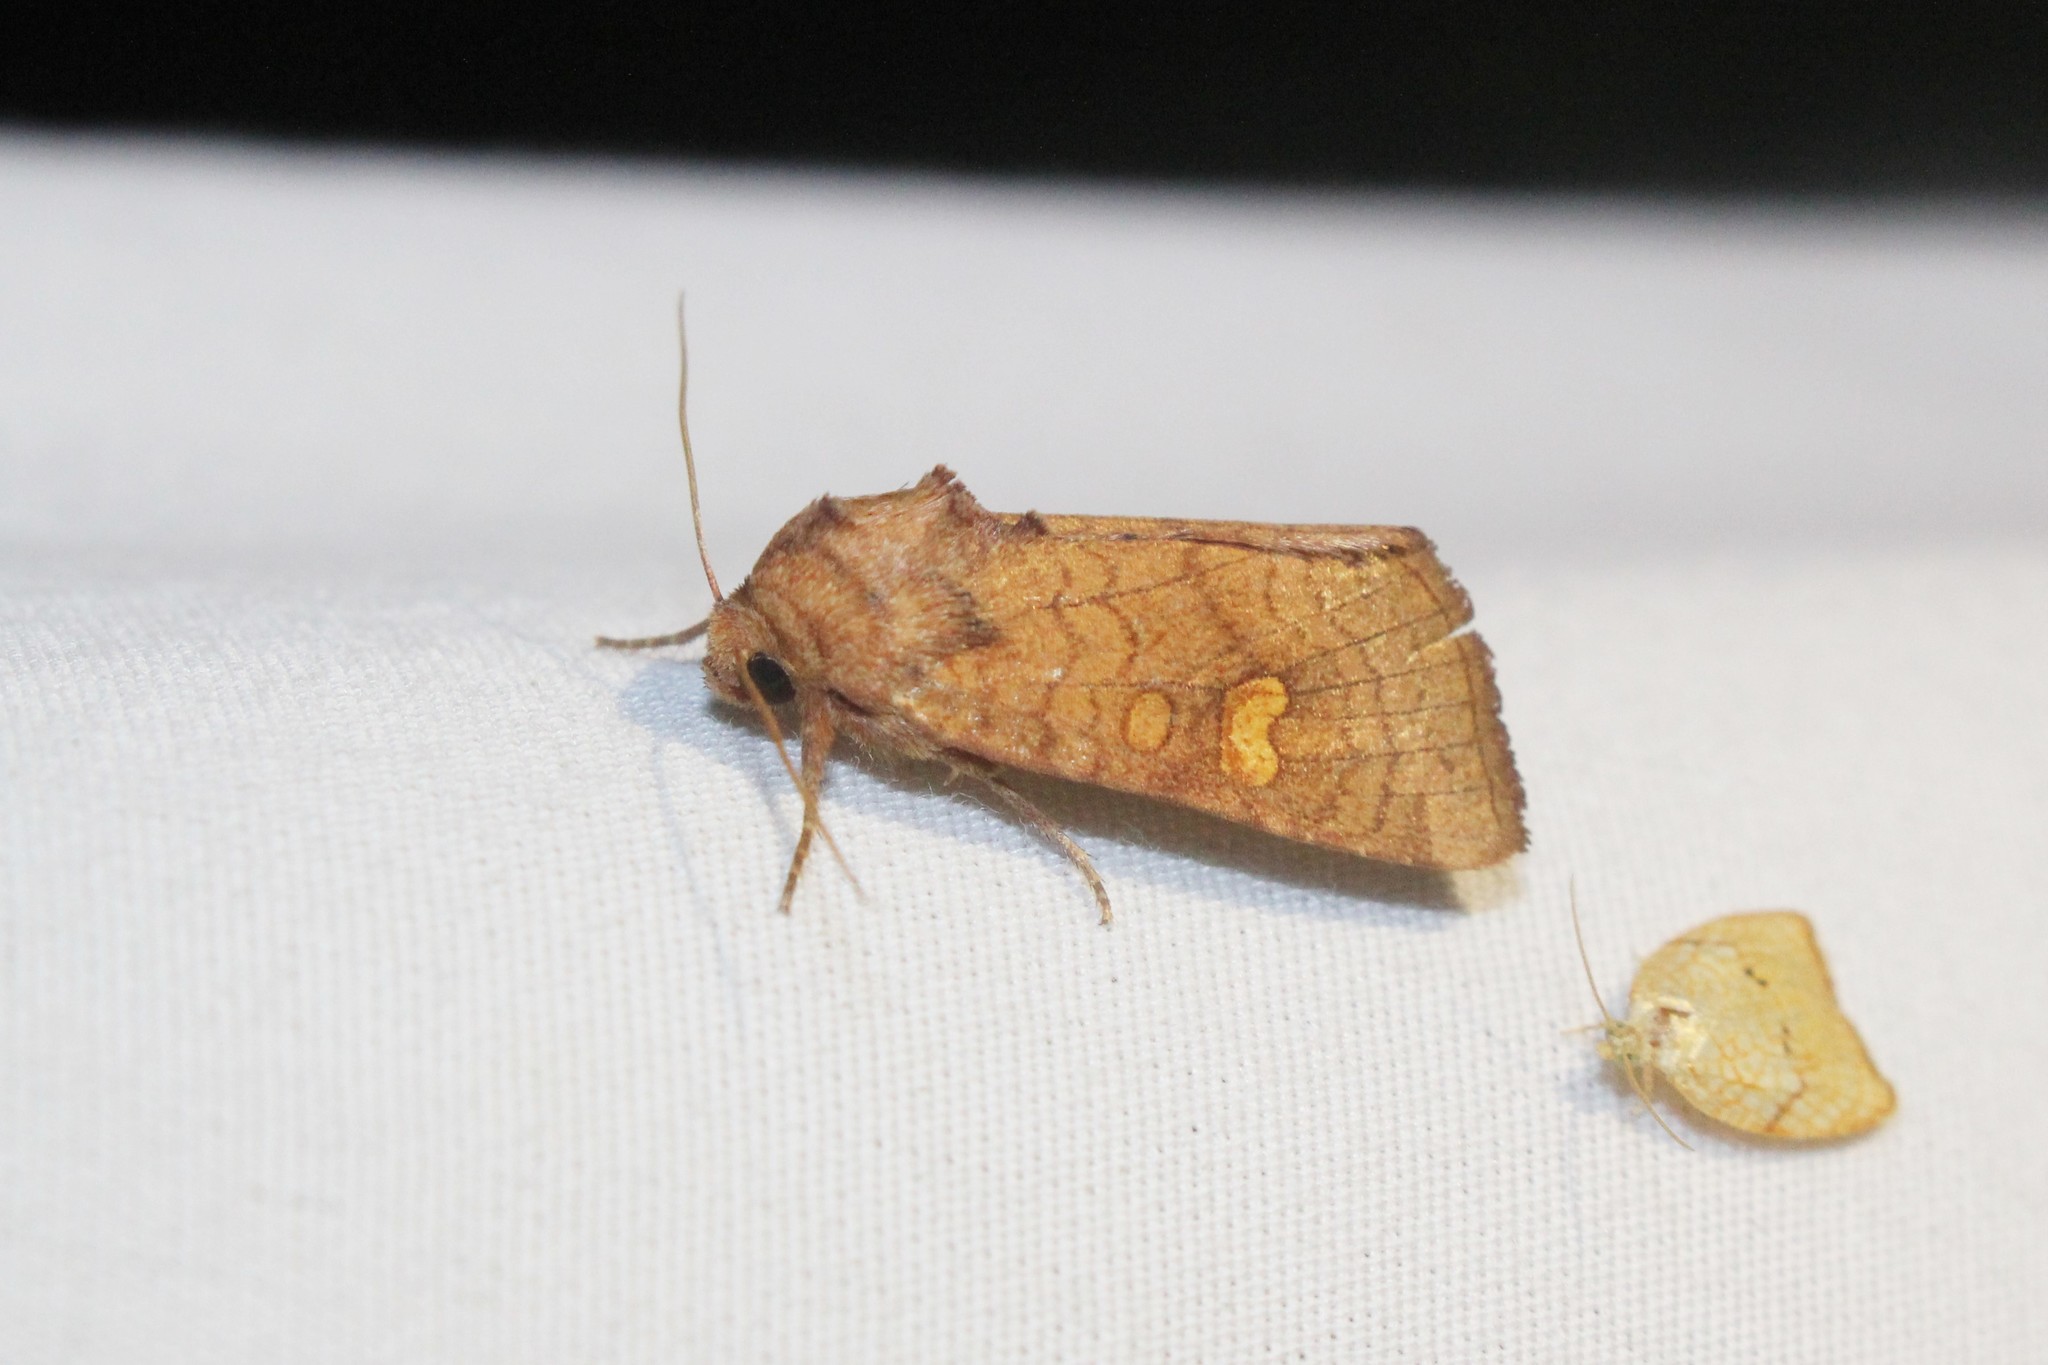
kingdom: Animalia
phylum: Arthropoda
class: Insecta
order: Lepidoptera
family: Noctuidae
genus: Amphipoea
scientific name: Amphipoea americana
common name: American ear moth
